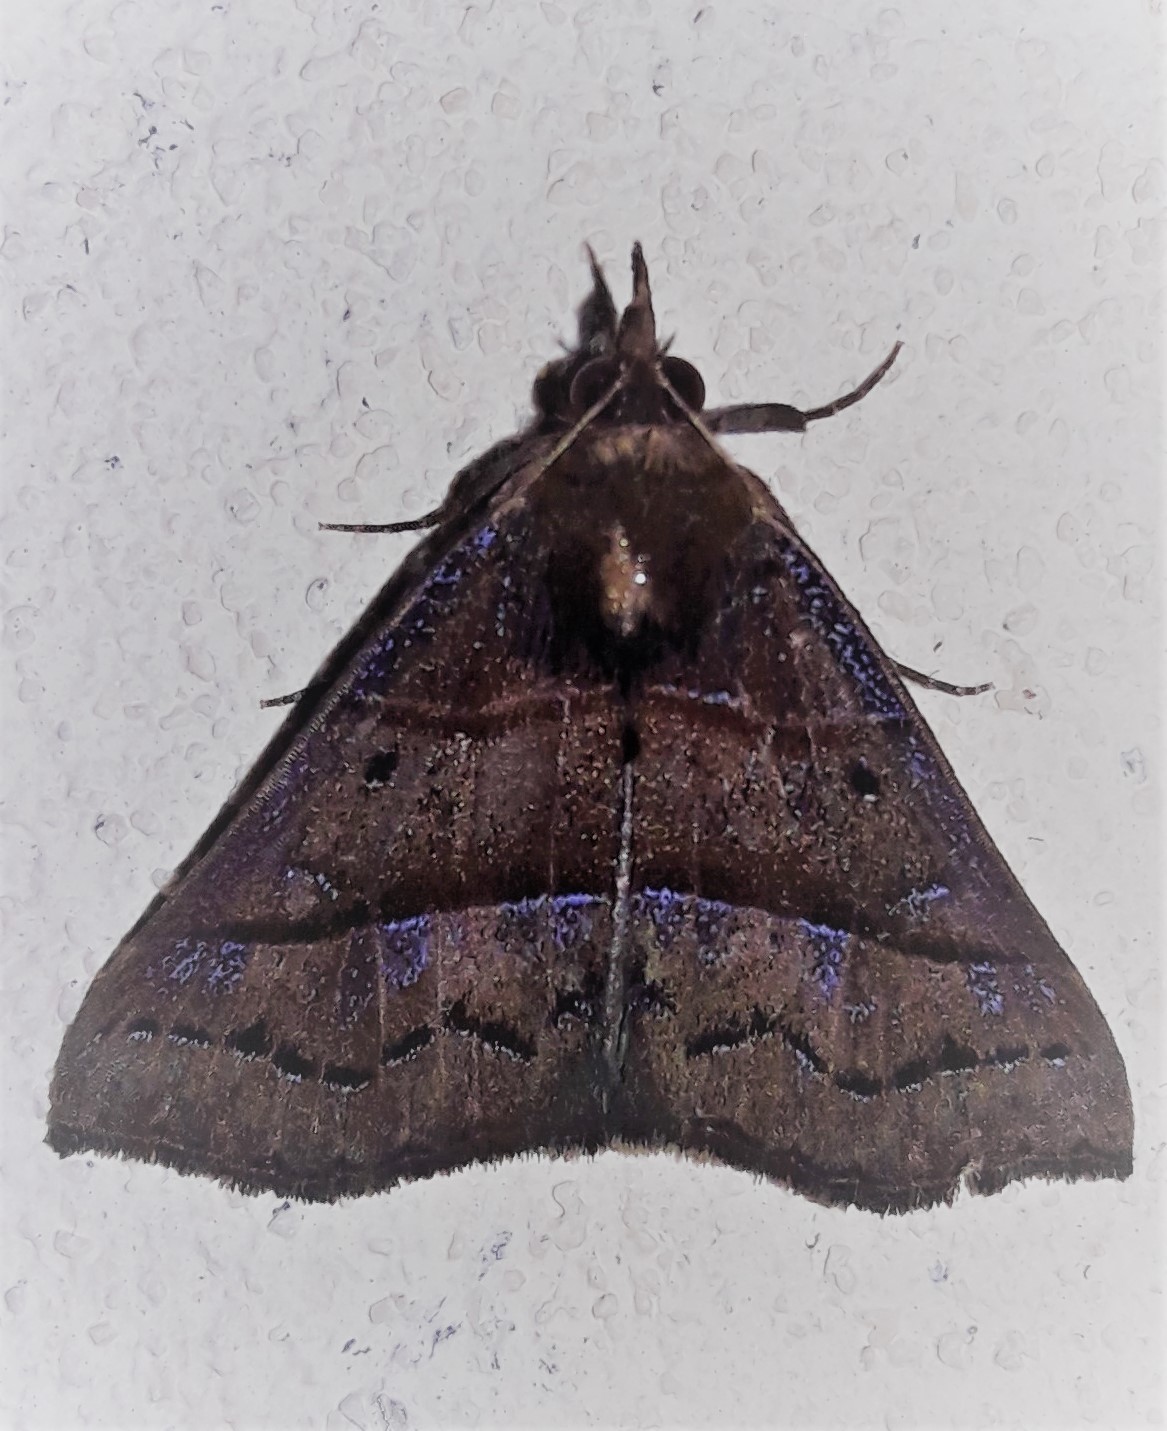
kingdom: Animalia
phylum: Arthropoda
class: Insecta
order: Lepidoptera
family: Erebidae
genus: Hypena
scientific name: Hypena lollia
